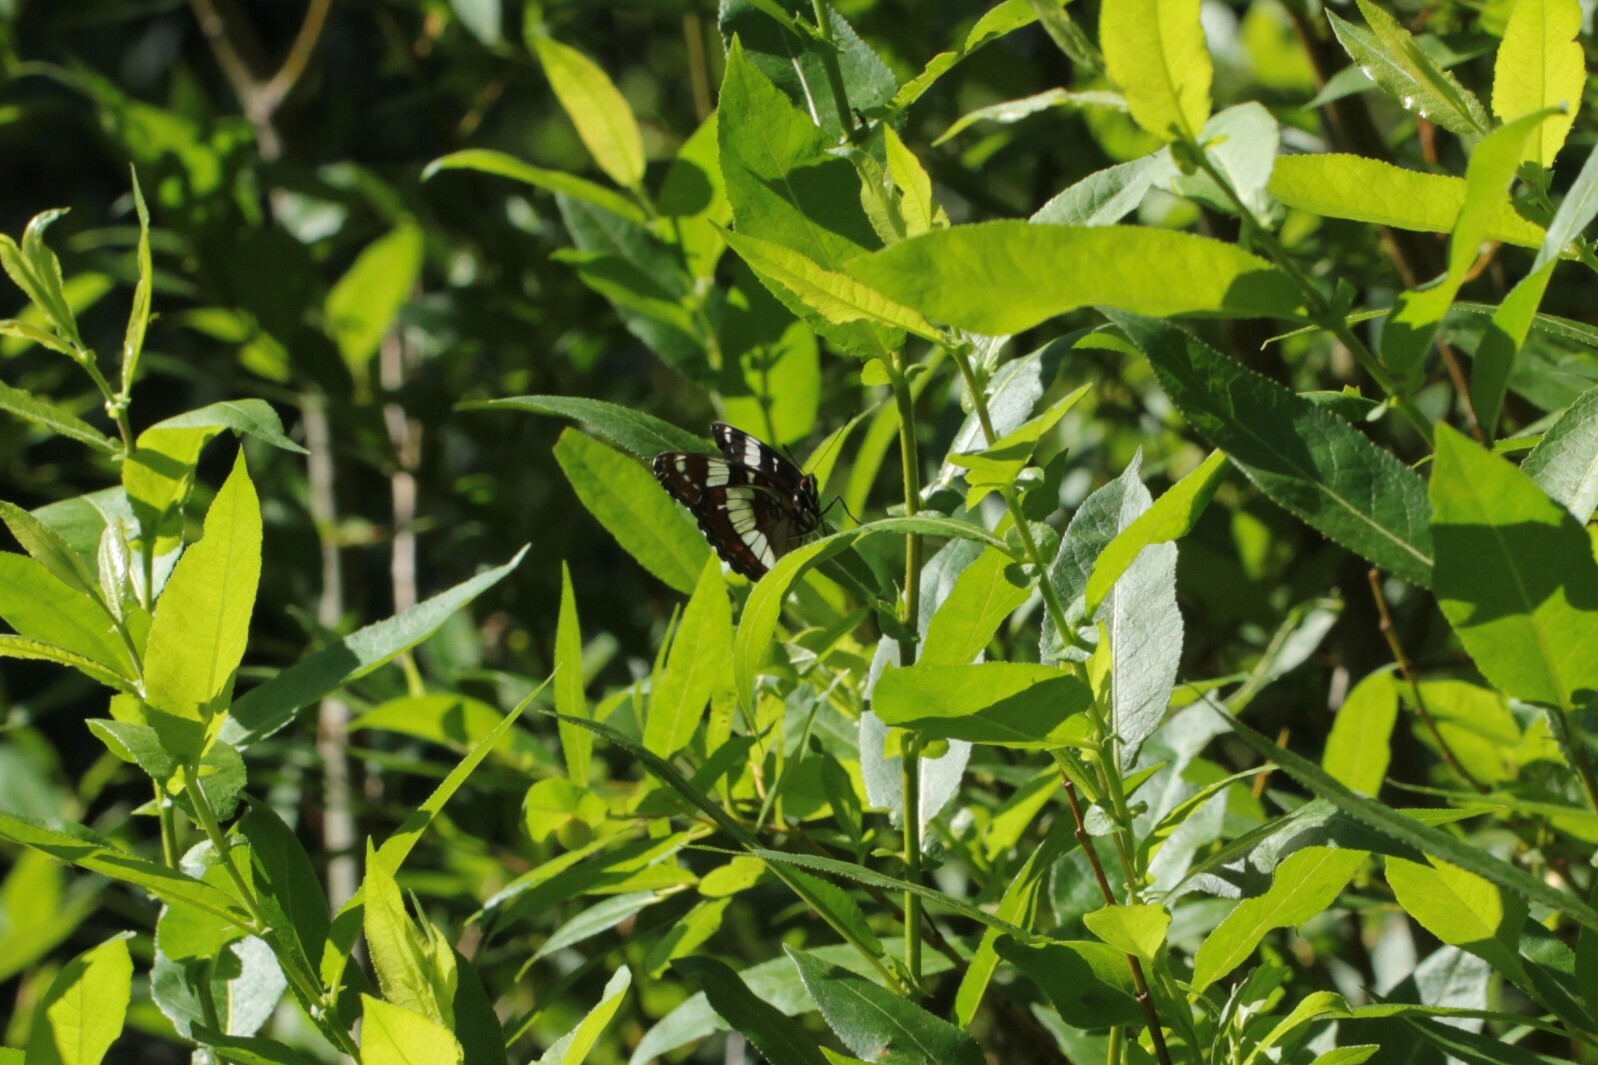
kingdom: Animalia
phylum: Arthropoda
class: Insecta
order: Lepidoptera
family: Nymphalidae
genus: Limenitis
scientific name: Limenitis arthemis
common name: Red-spotted admiral
